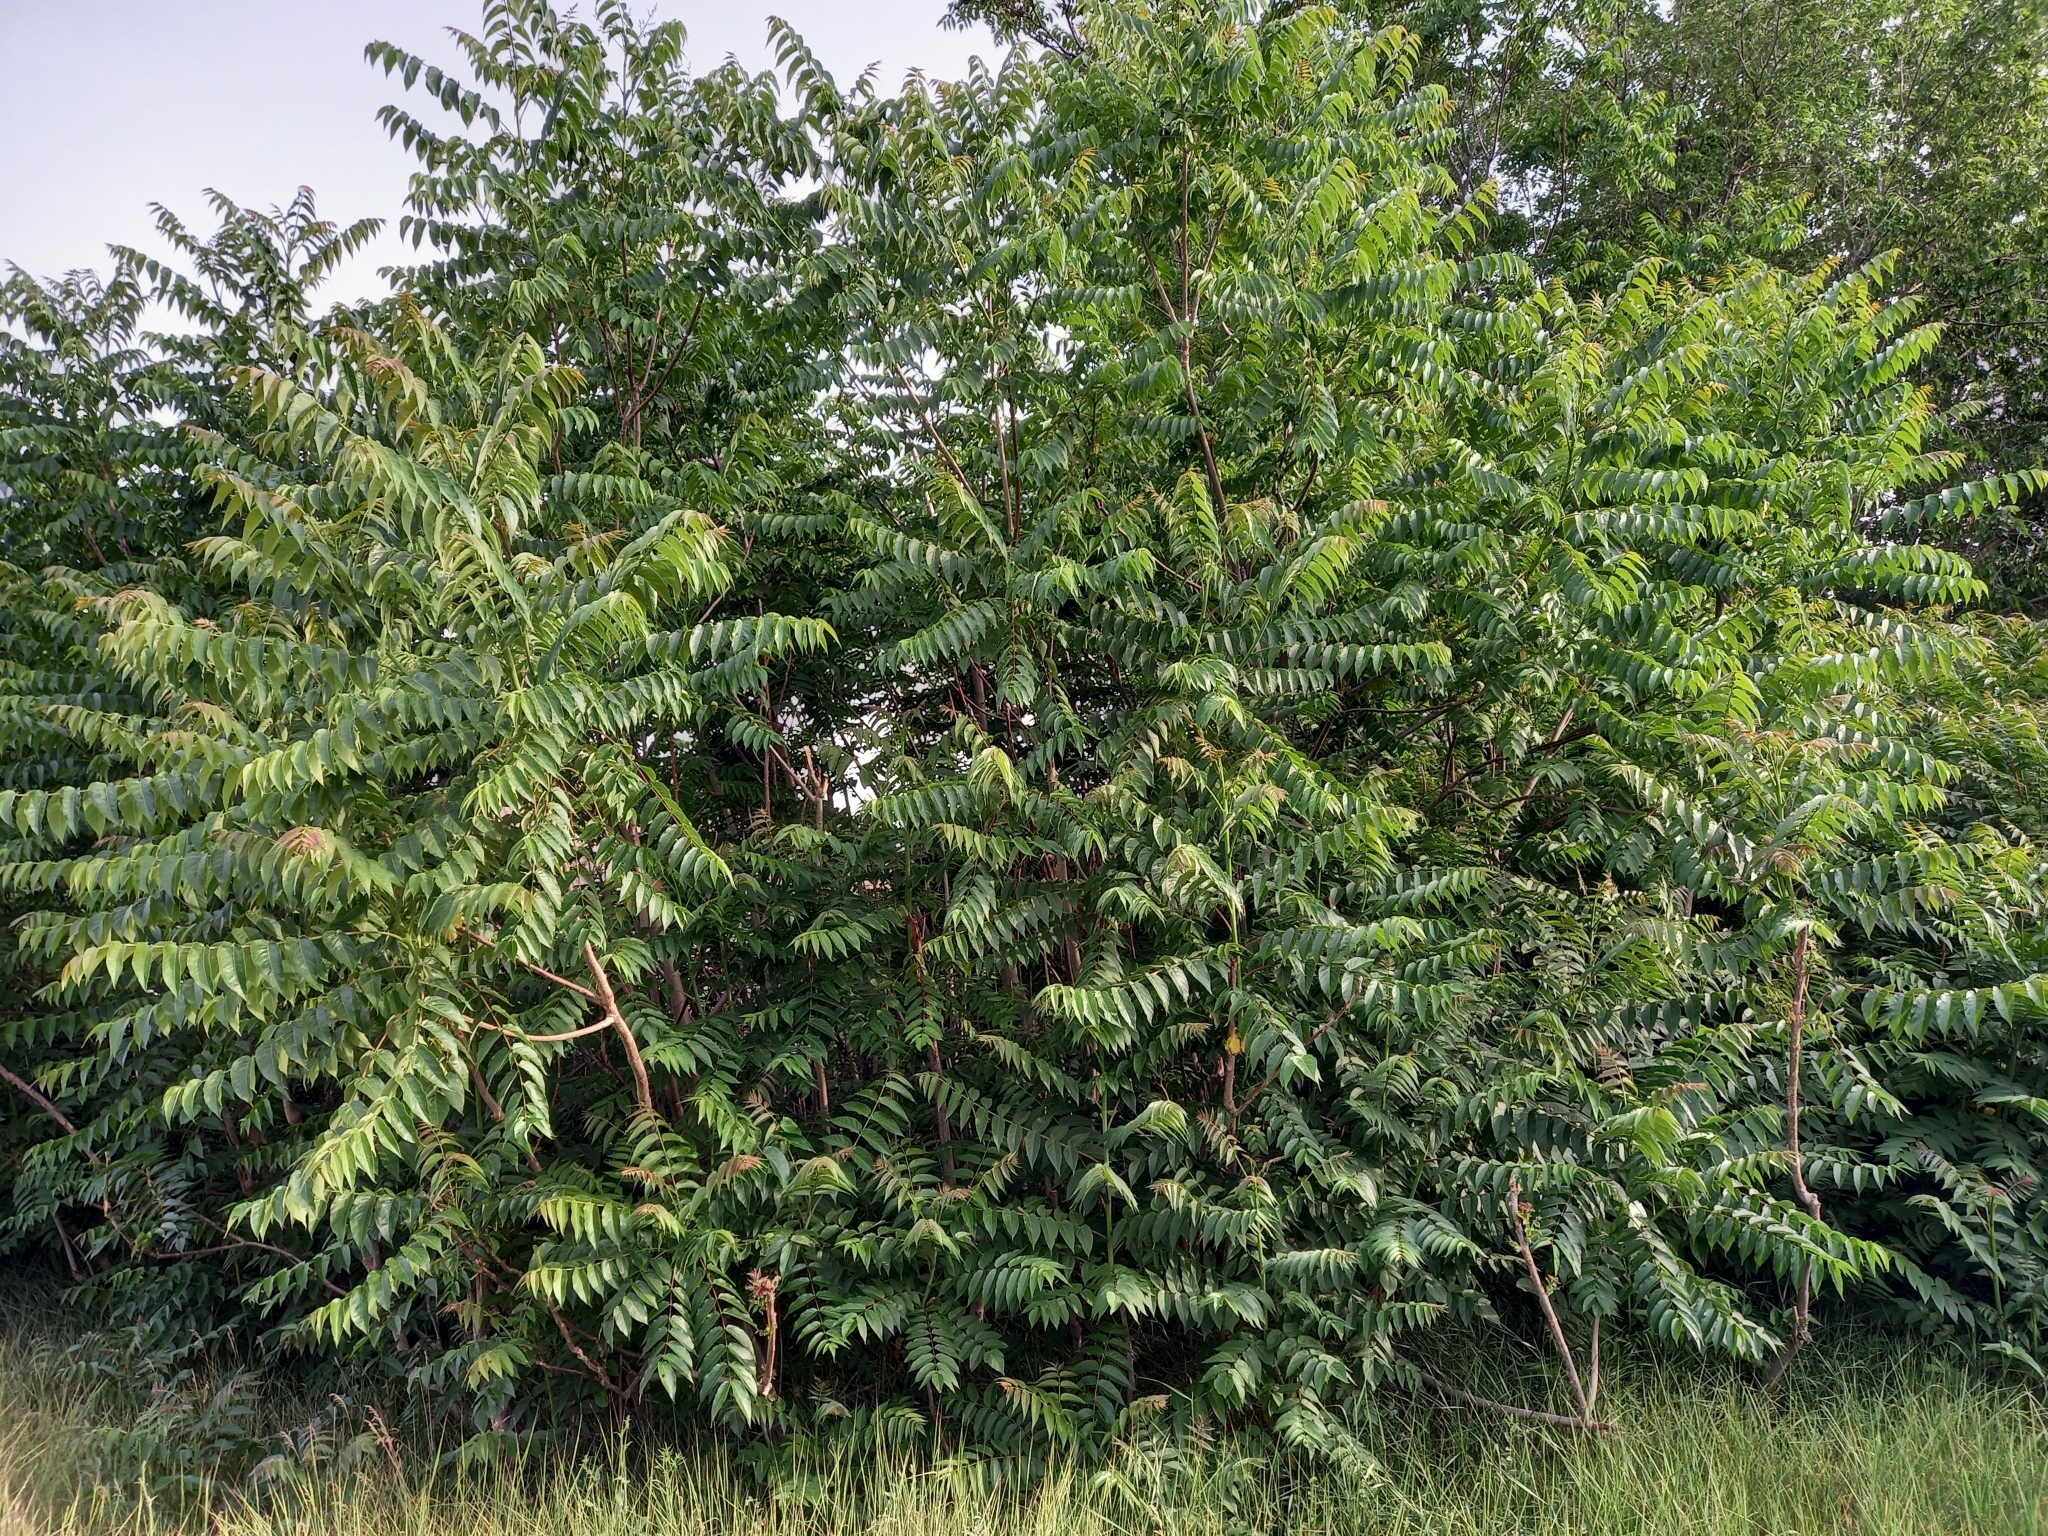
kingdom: Plantae
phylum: Tracheophyta
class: Magnoliopsida
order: Sapindales
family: Simaroubaceae
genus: Ailanthus
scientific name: Ailanthus altissima
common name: Tree-of-heaven
